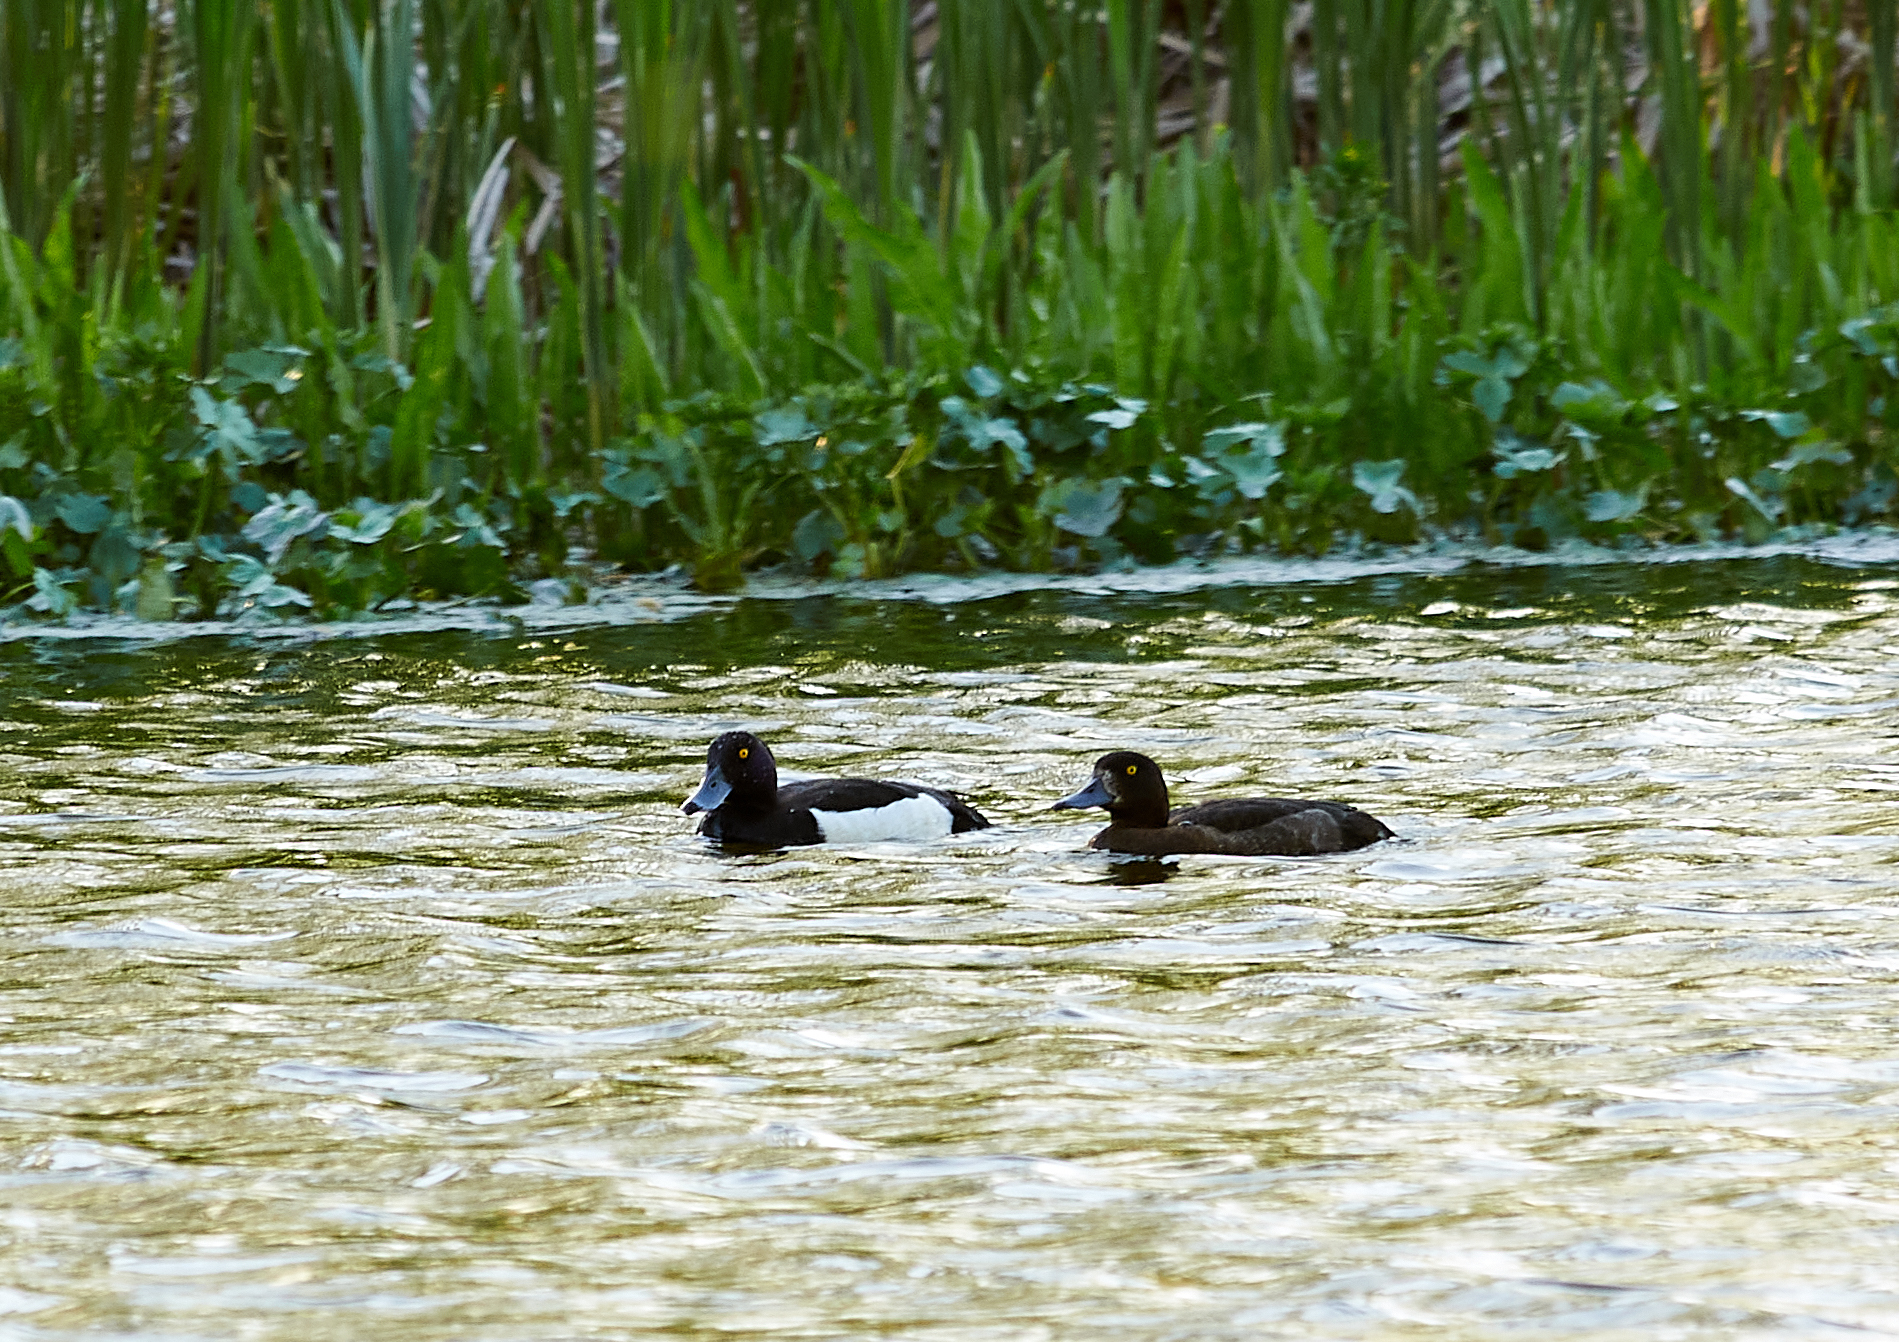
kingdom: Animalia
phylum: Chordata
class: Aves
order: Anseriformes
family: Anatidae
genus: Aythya
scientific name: Aythya fuligula
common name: Tufted duck
